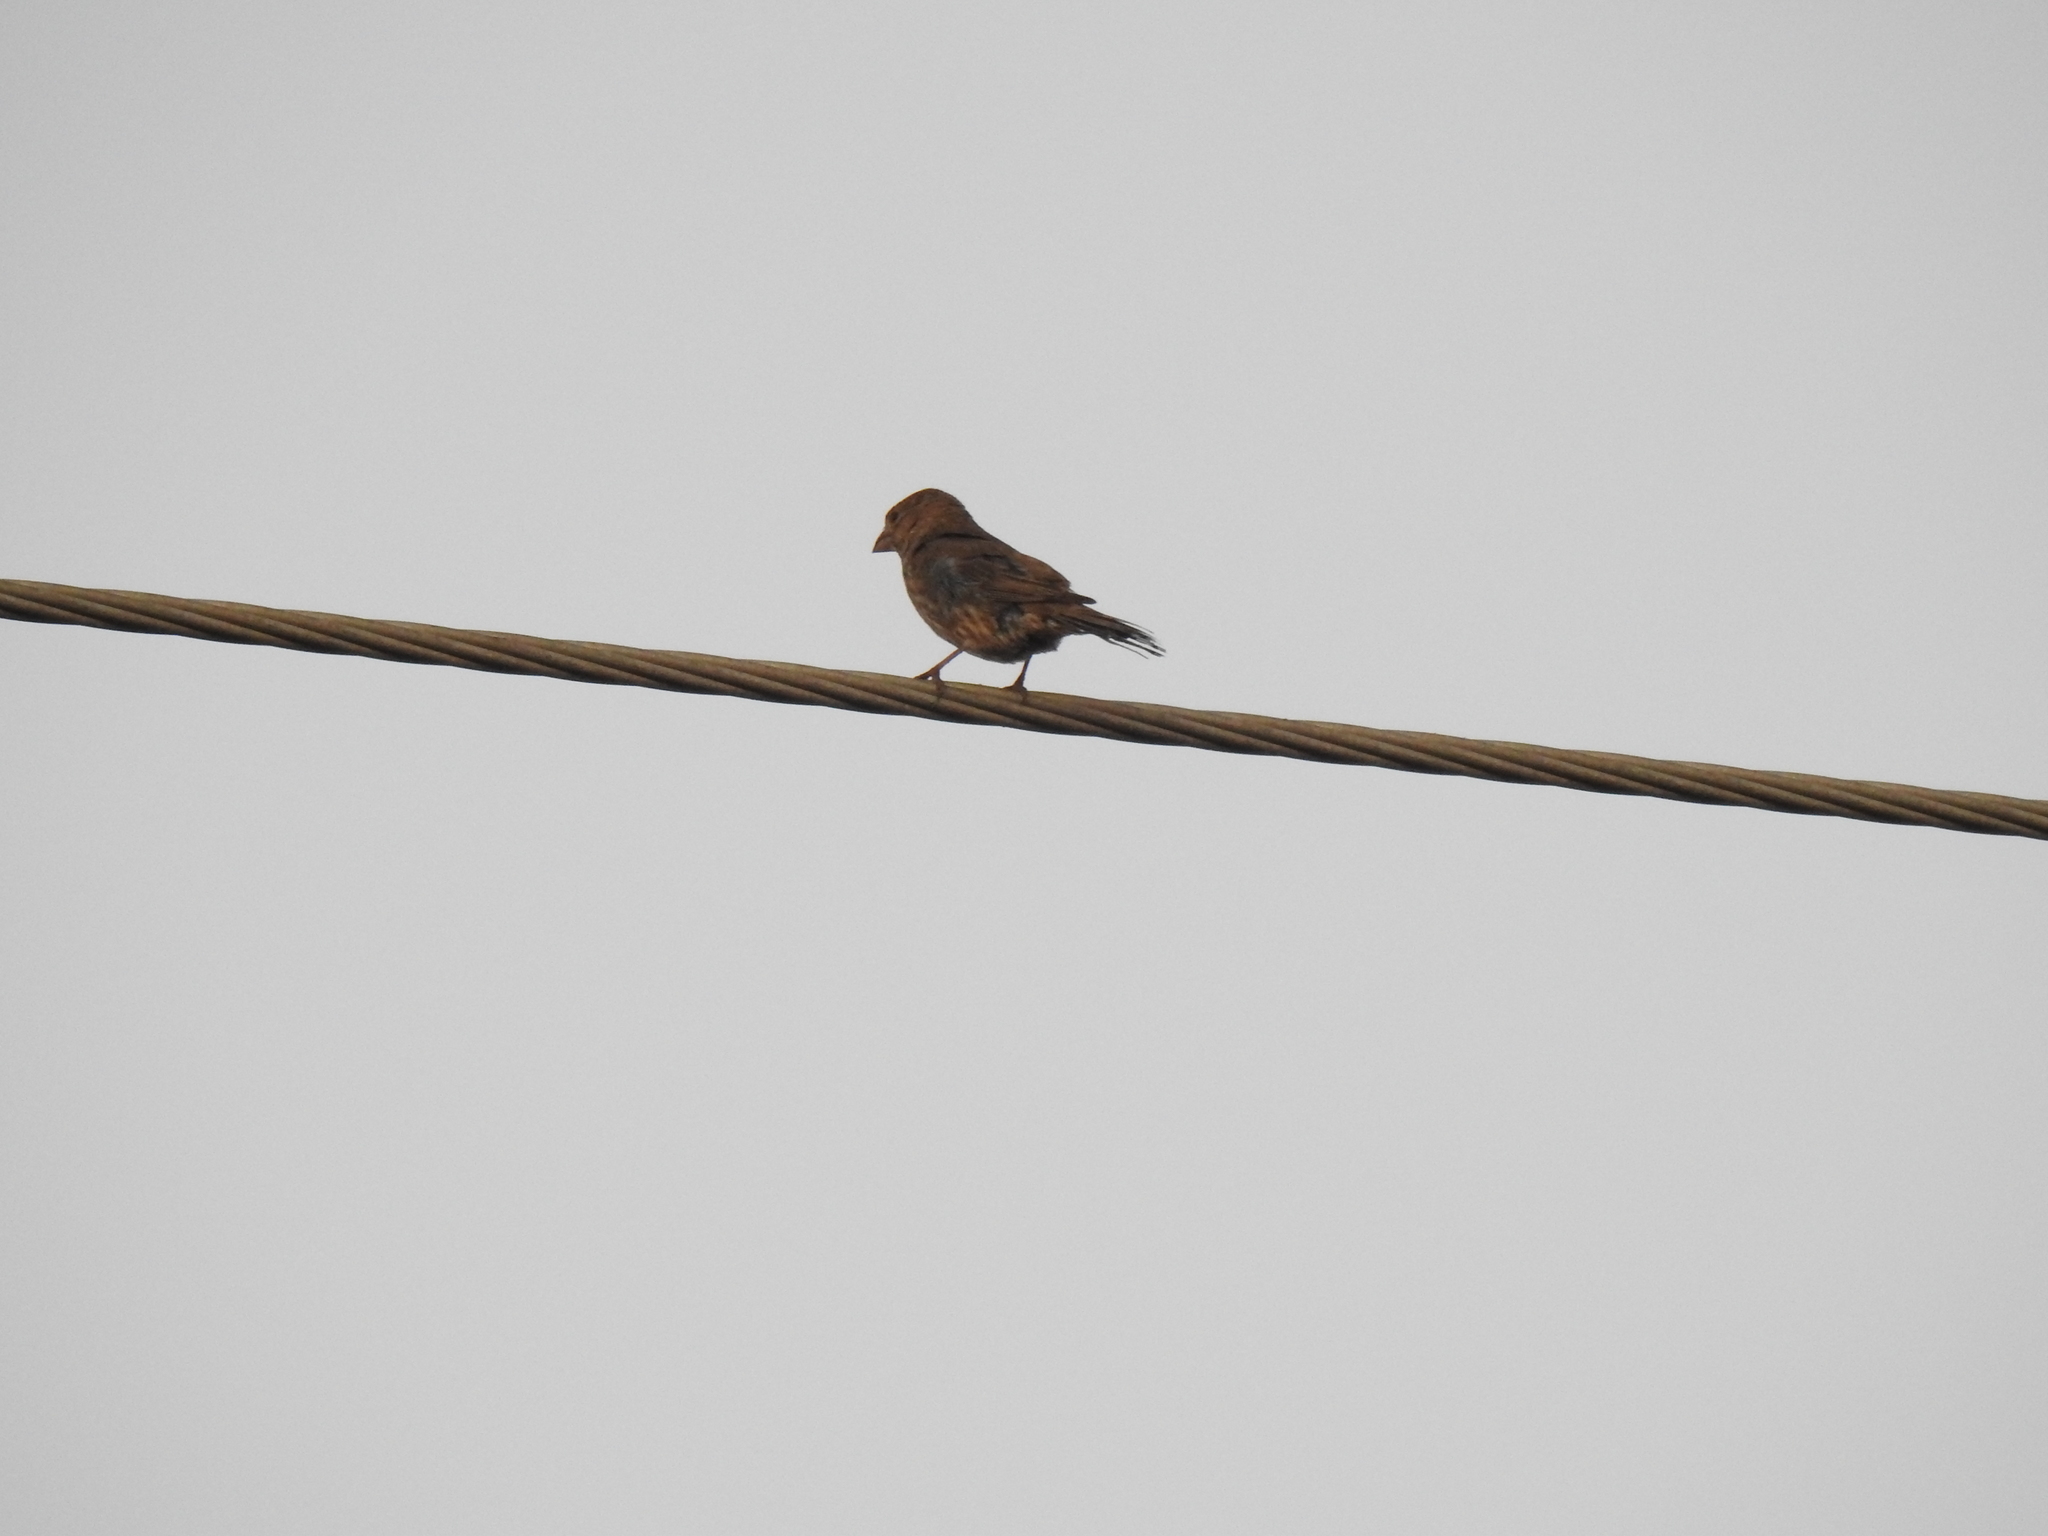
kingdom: Animalia
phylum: Chordata
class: Aves
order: Passeriformes
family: Fringillidae
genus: Haemorhous
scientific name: Haemorhous mexicanus
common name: House finch
